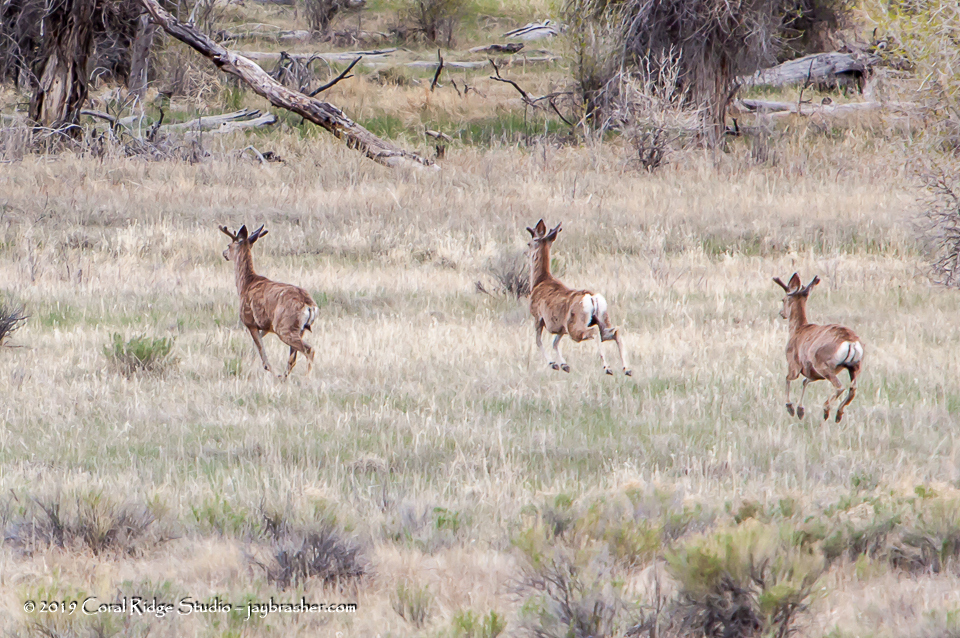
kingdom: Animalia
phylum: Chordata
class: Mammalia
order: Artiodactyla
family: Cervidae
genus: Odocoileus
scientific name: Odocoileus hemionus
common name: Mule deer
